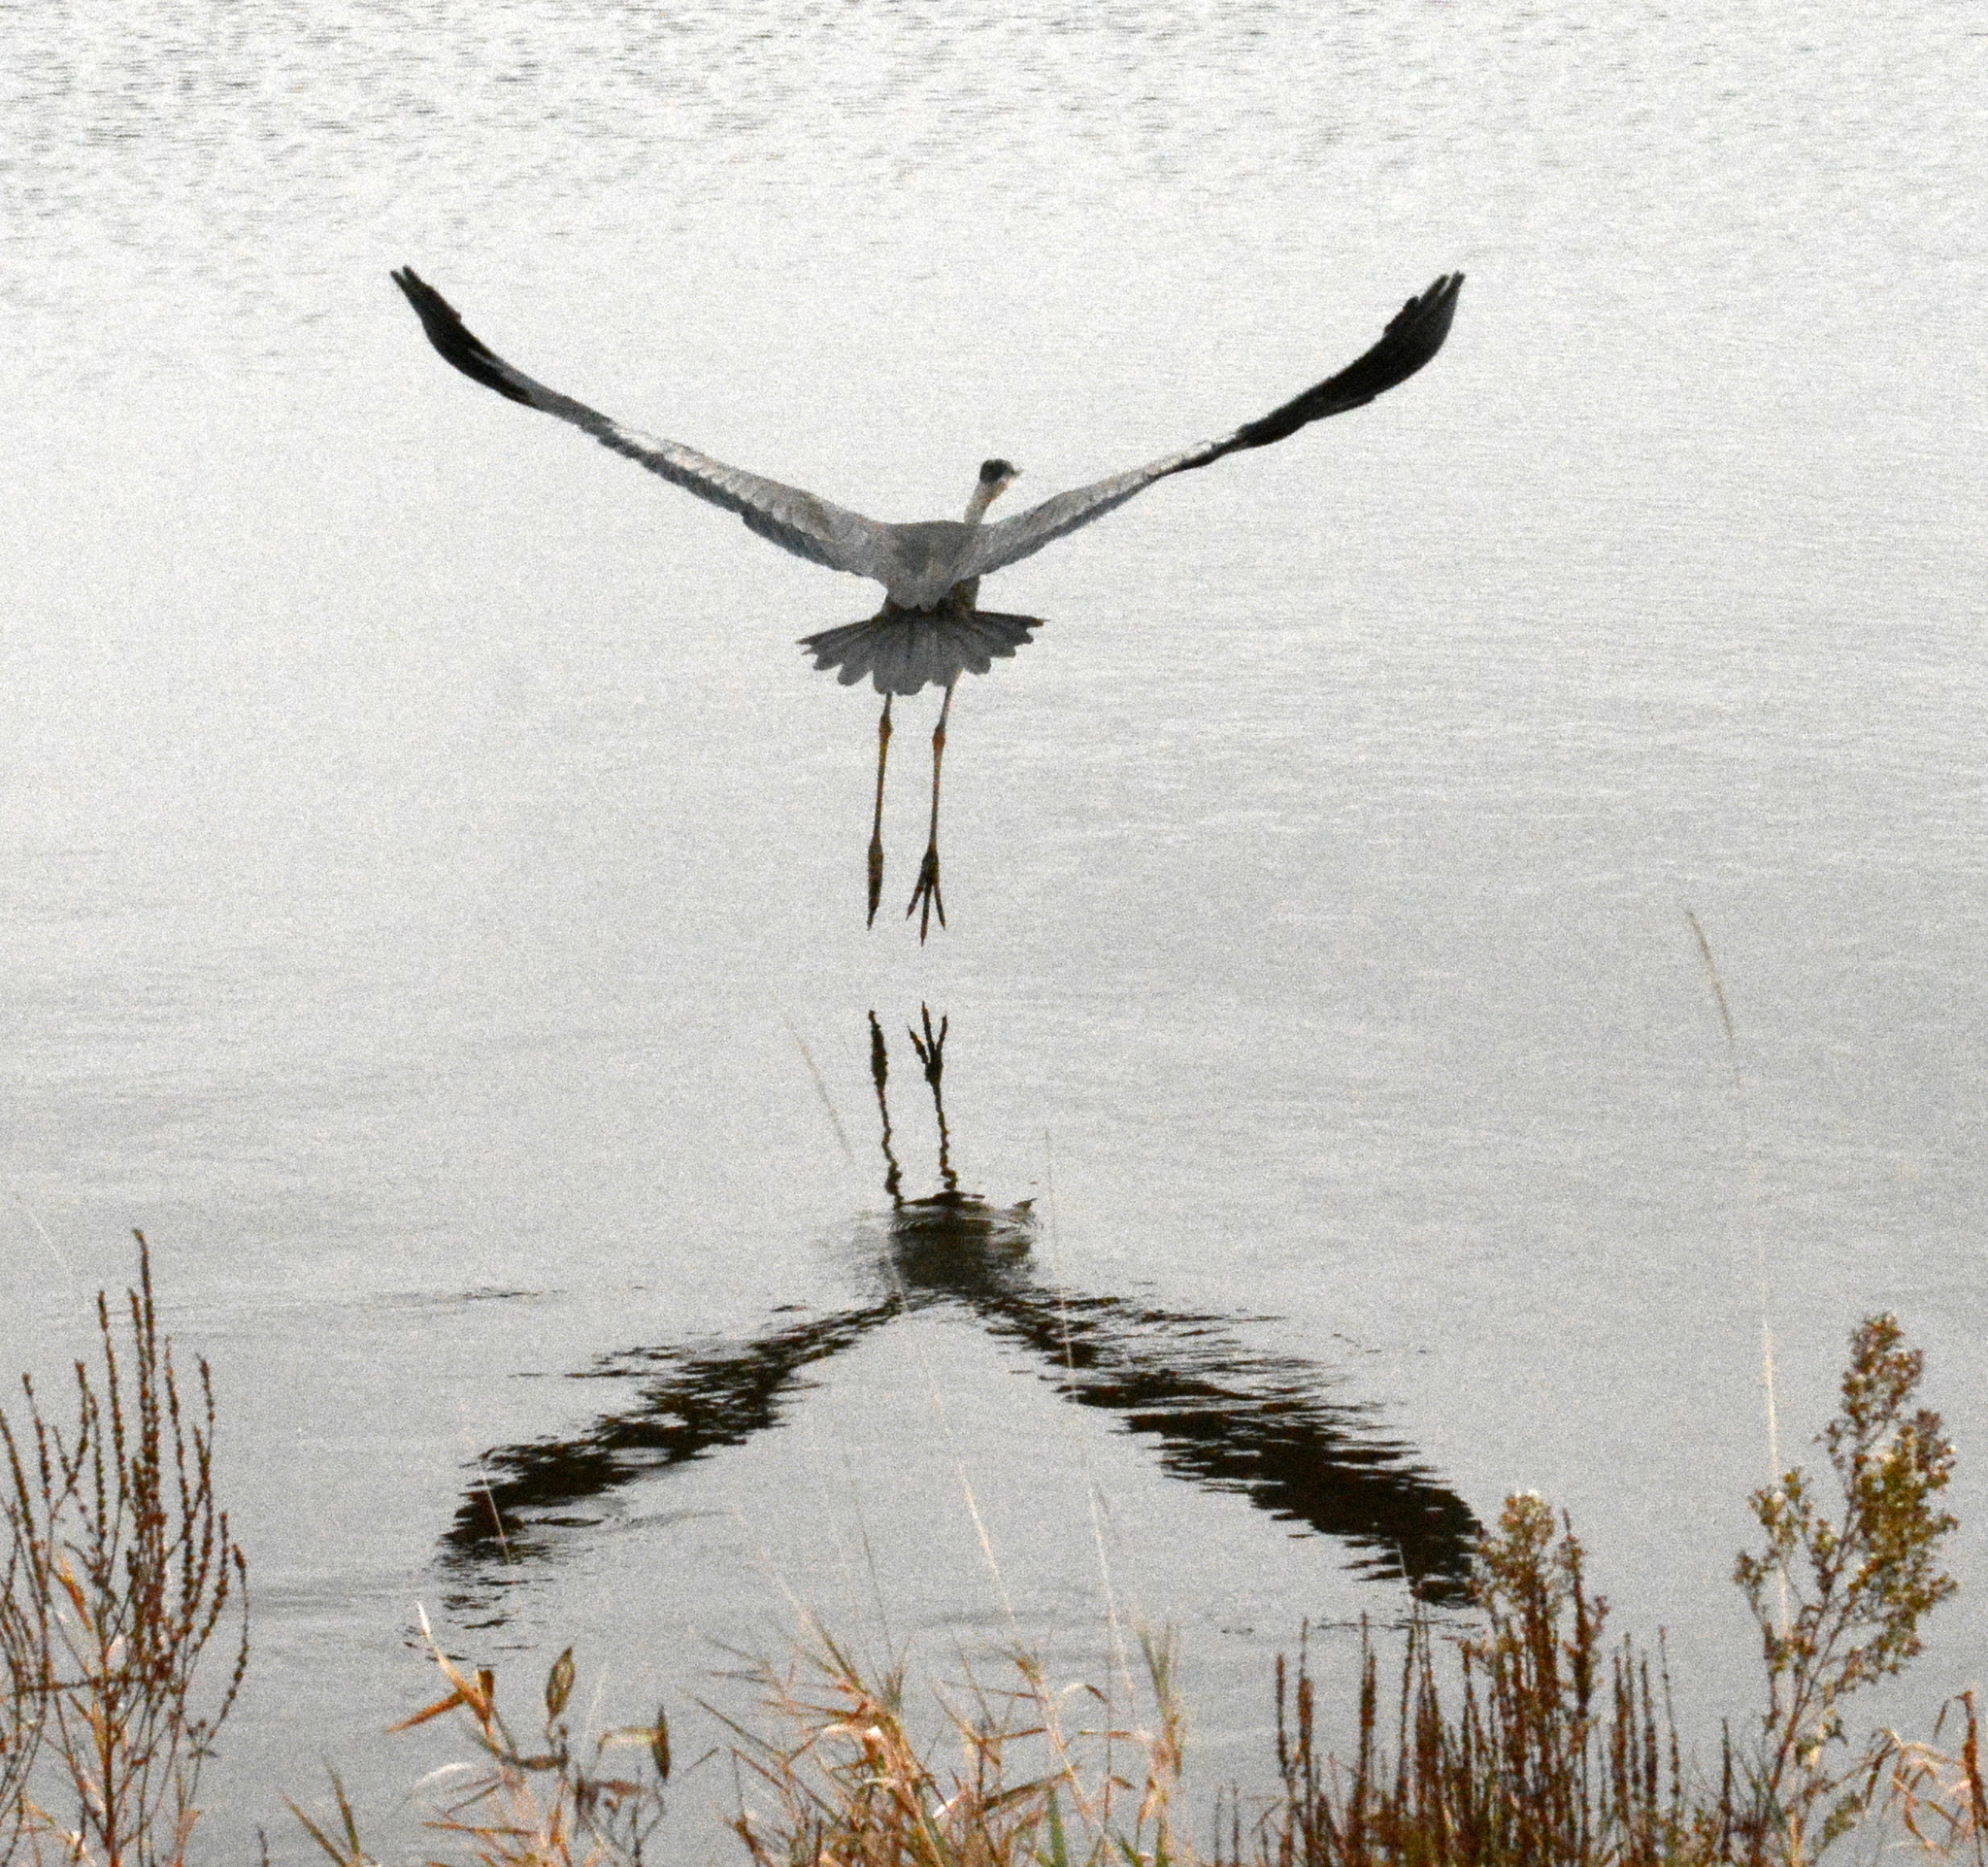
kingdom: Animalia
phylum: Chordata
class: Aves
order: Pelecaniformes
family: Ardeidae
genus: Ardea
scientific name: Ardea herodias
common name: Great blue heron
